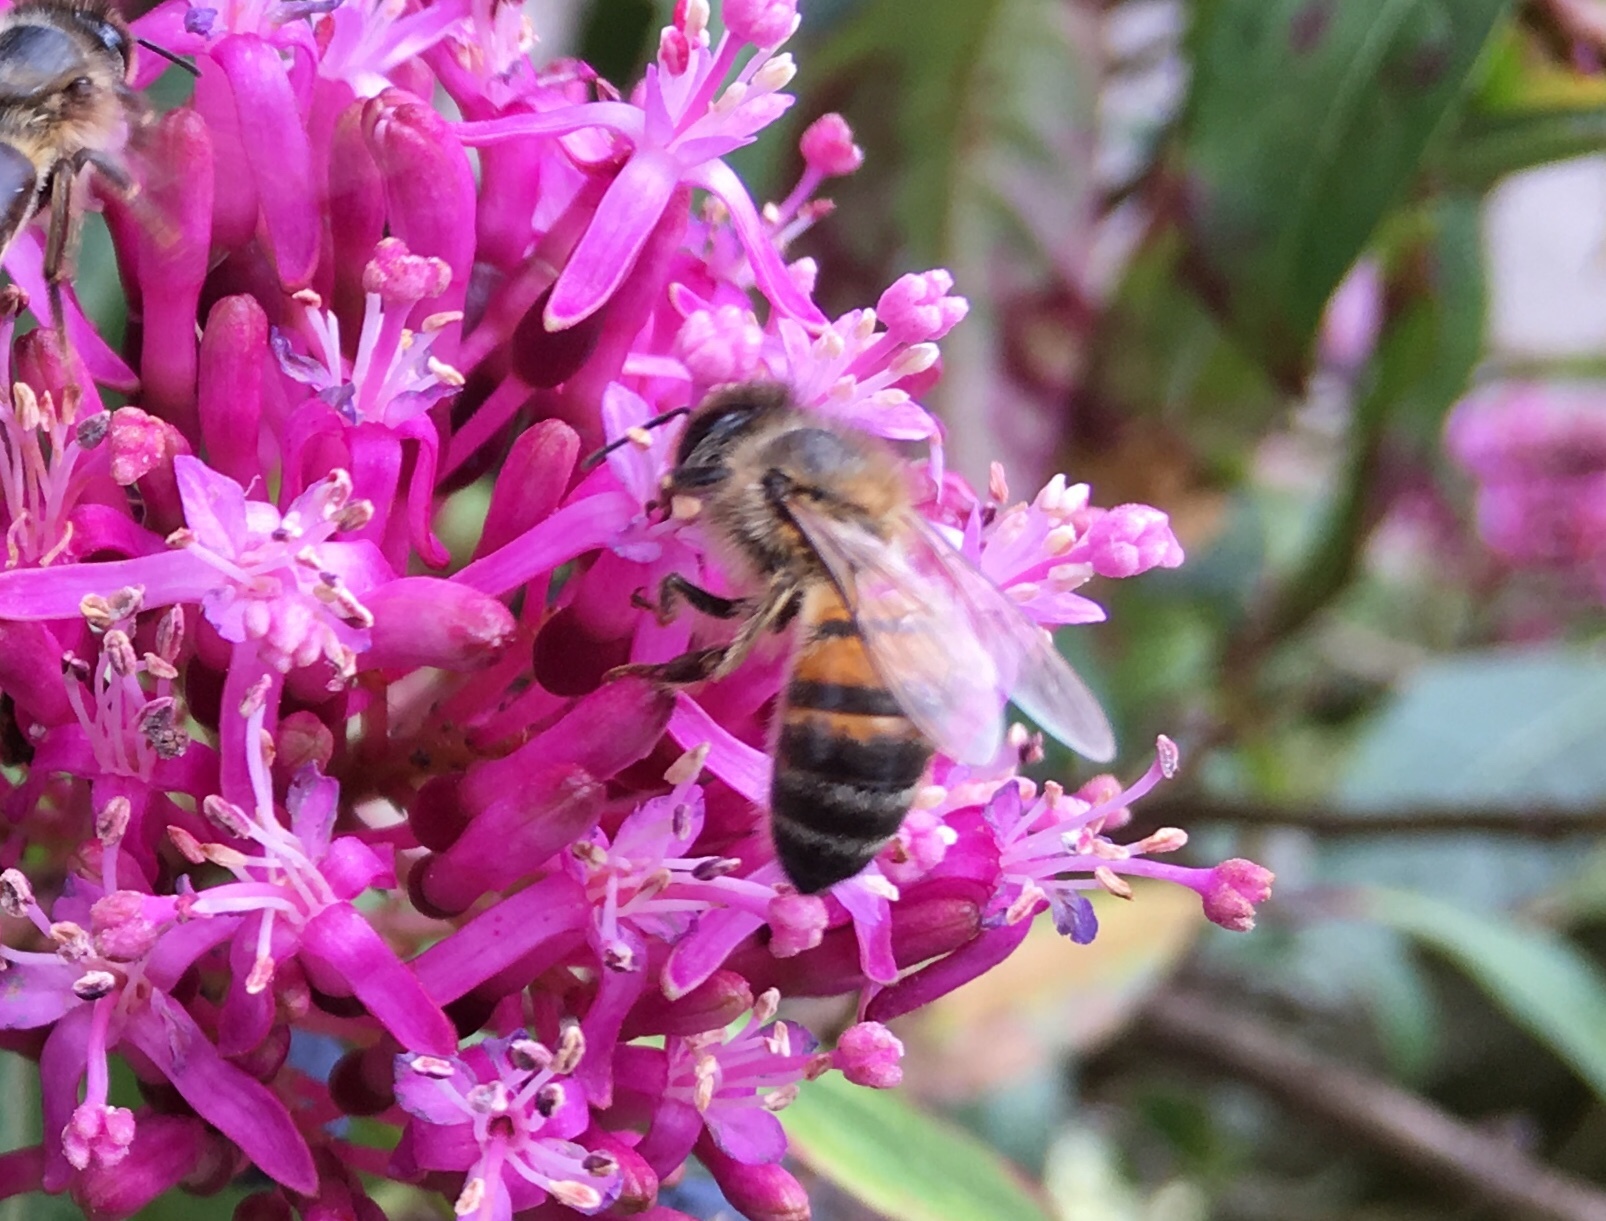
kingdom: Animalia
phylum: Arthropoda
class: Insecta
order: Hymenoptera
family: Apidae
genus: Apis
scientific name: Apis mellifera
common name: Honey bee
